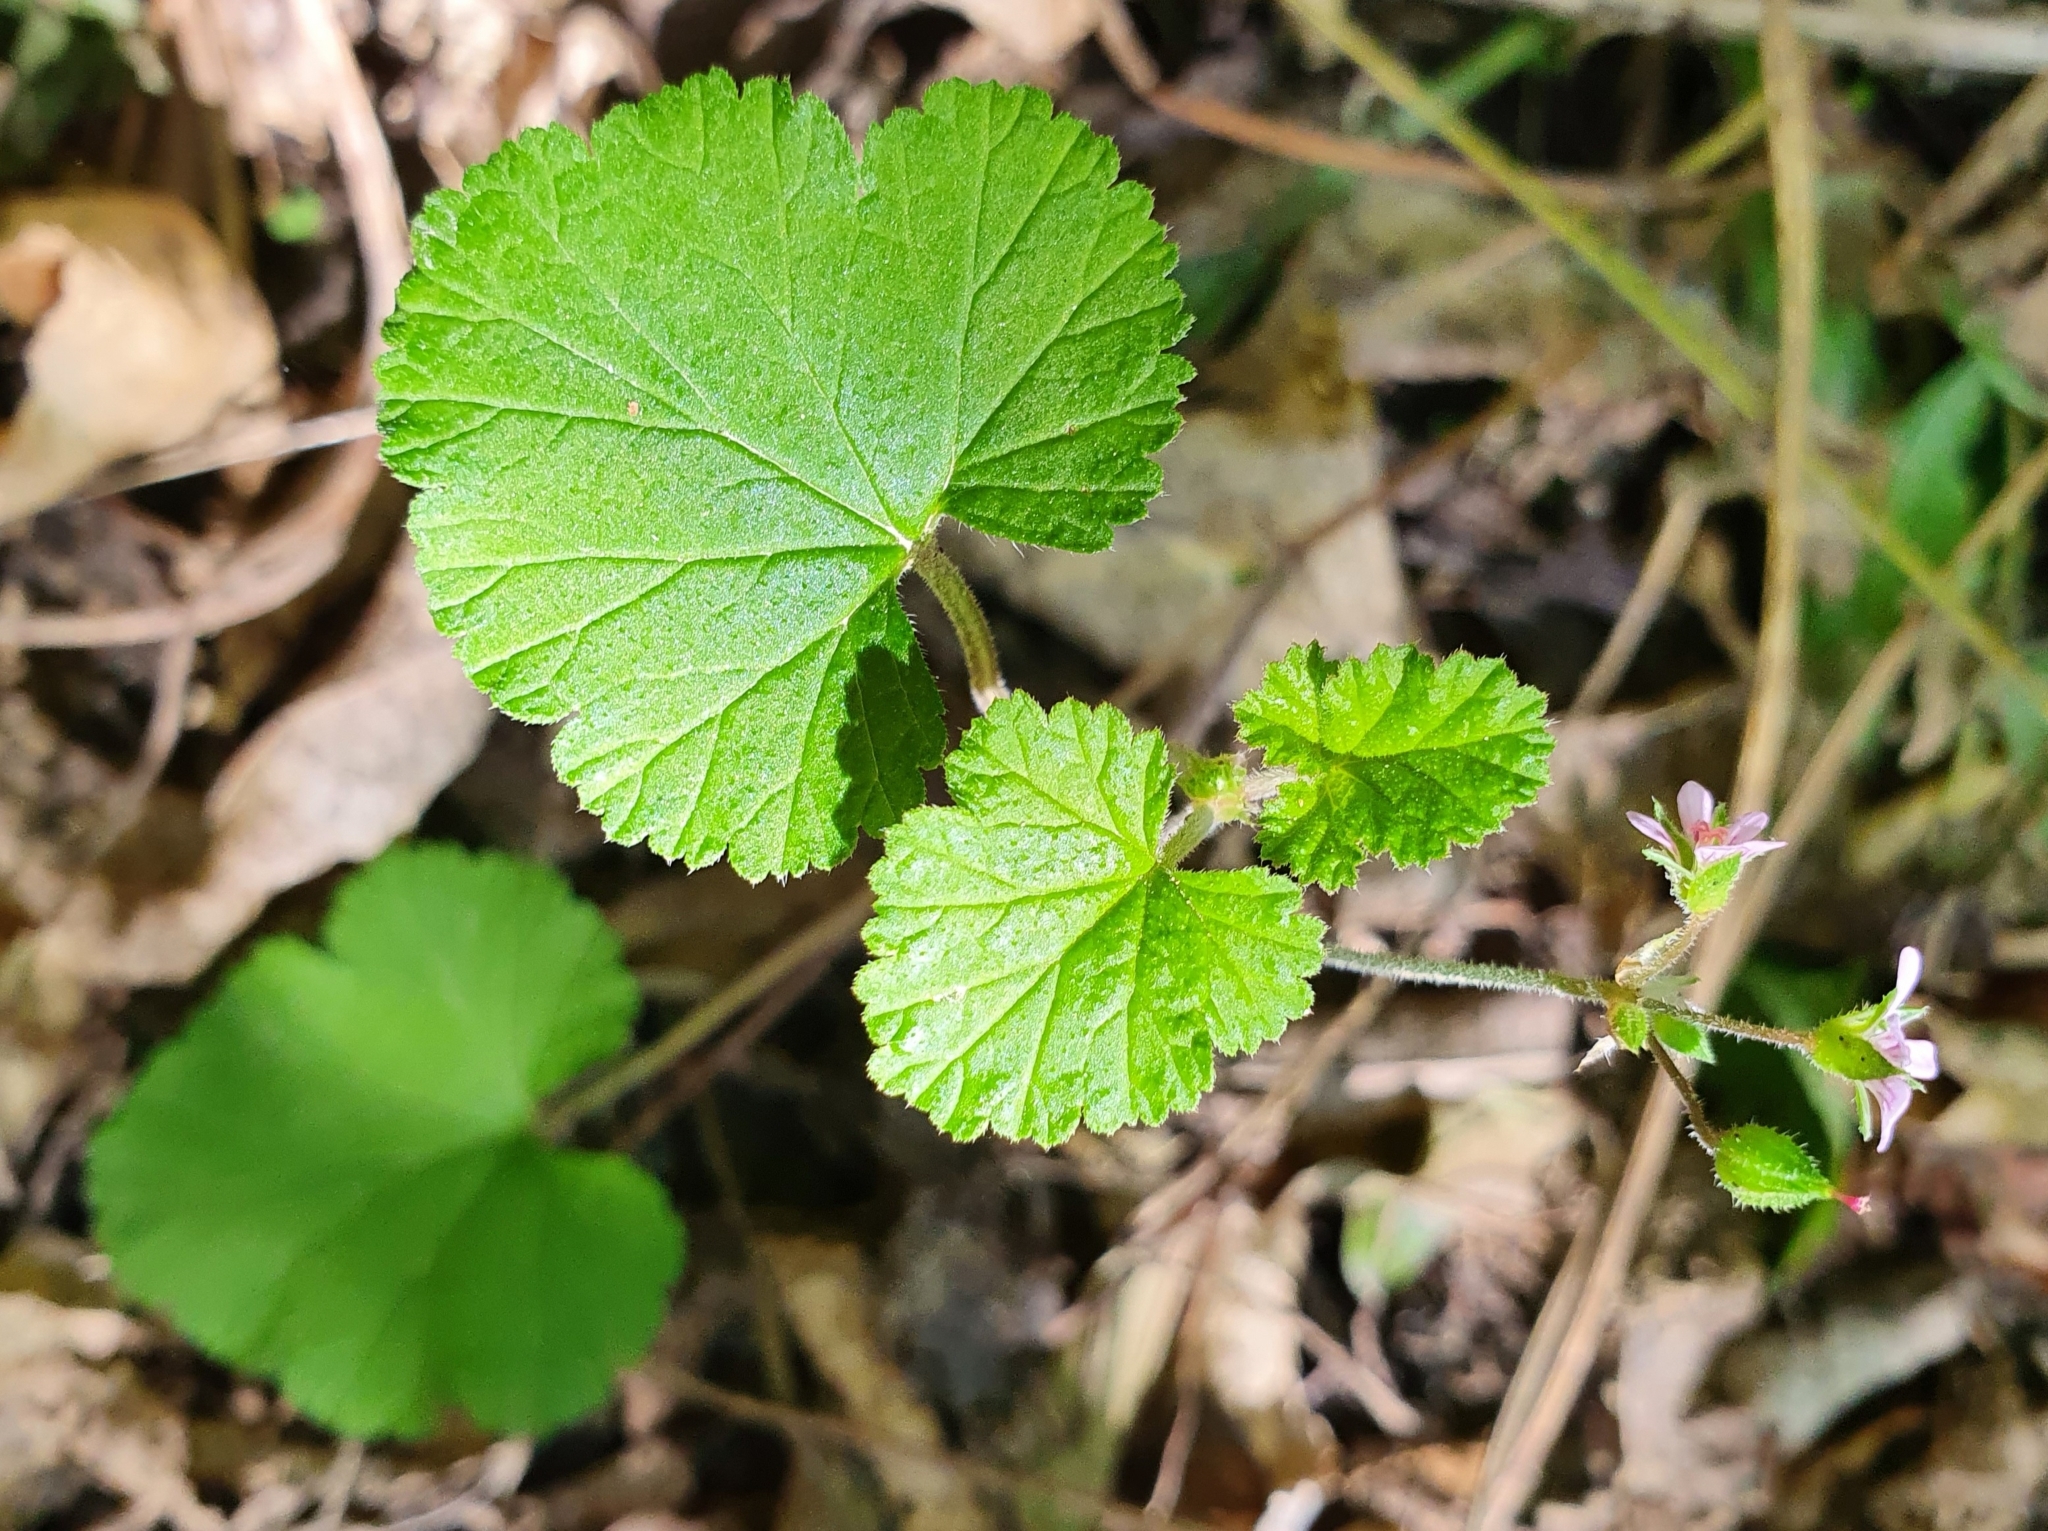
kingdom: Plantae
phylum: Tracheophyta
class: Magnoliopsida
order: Geraniales
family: Geraniaceae
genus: Pelargonium
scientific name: Pelargonium inodorum
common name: Kopata geranium
